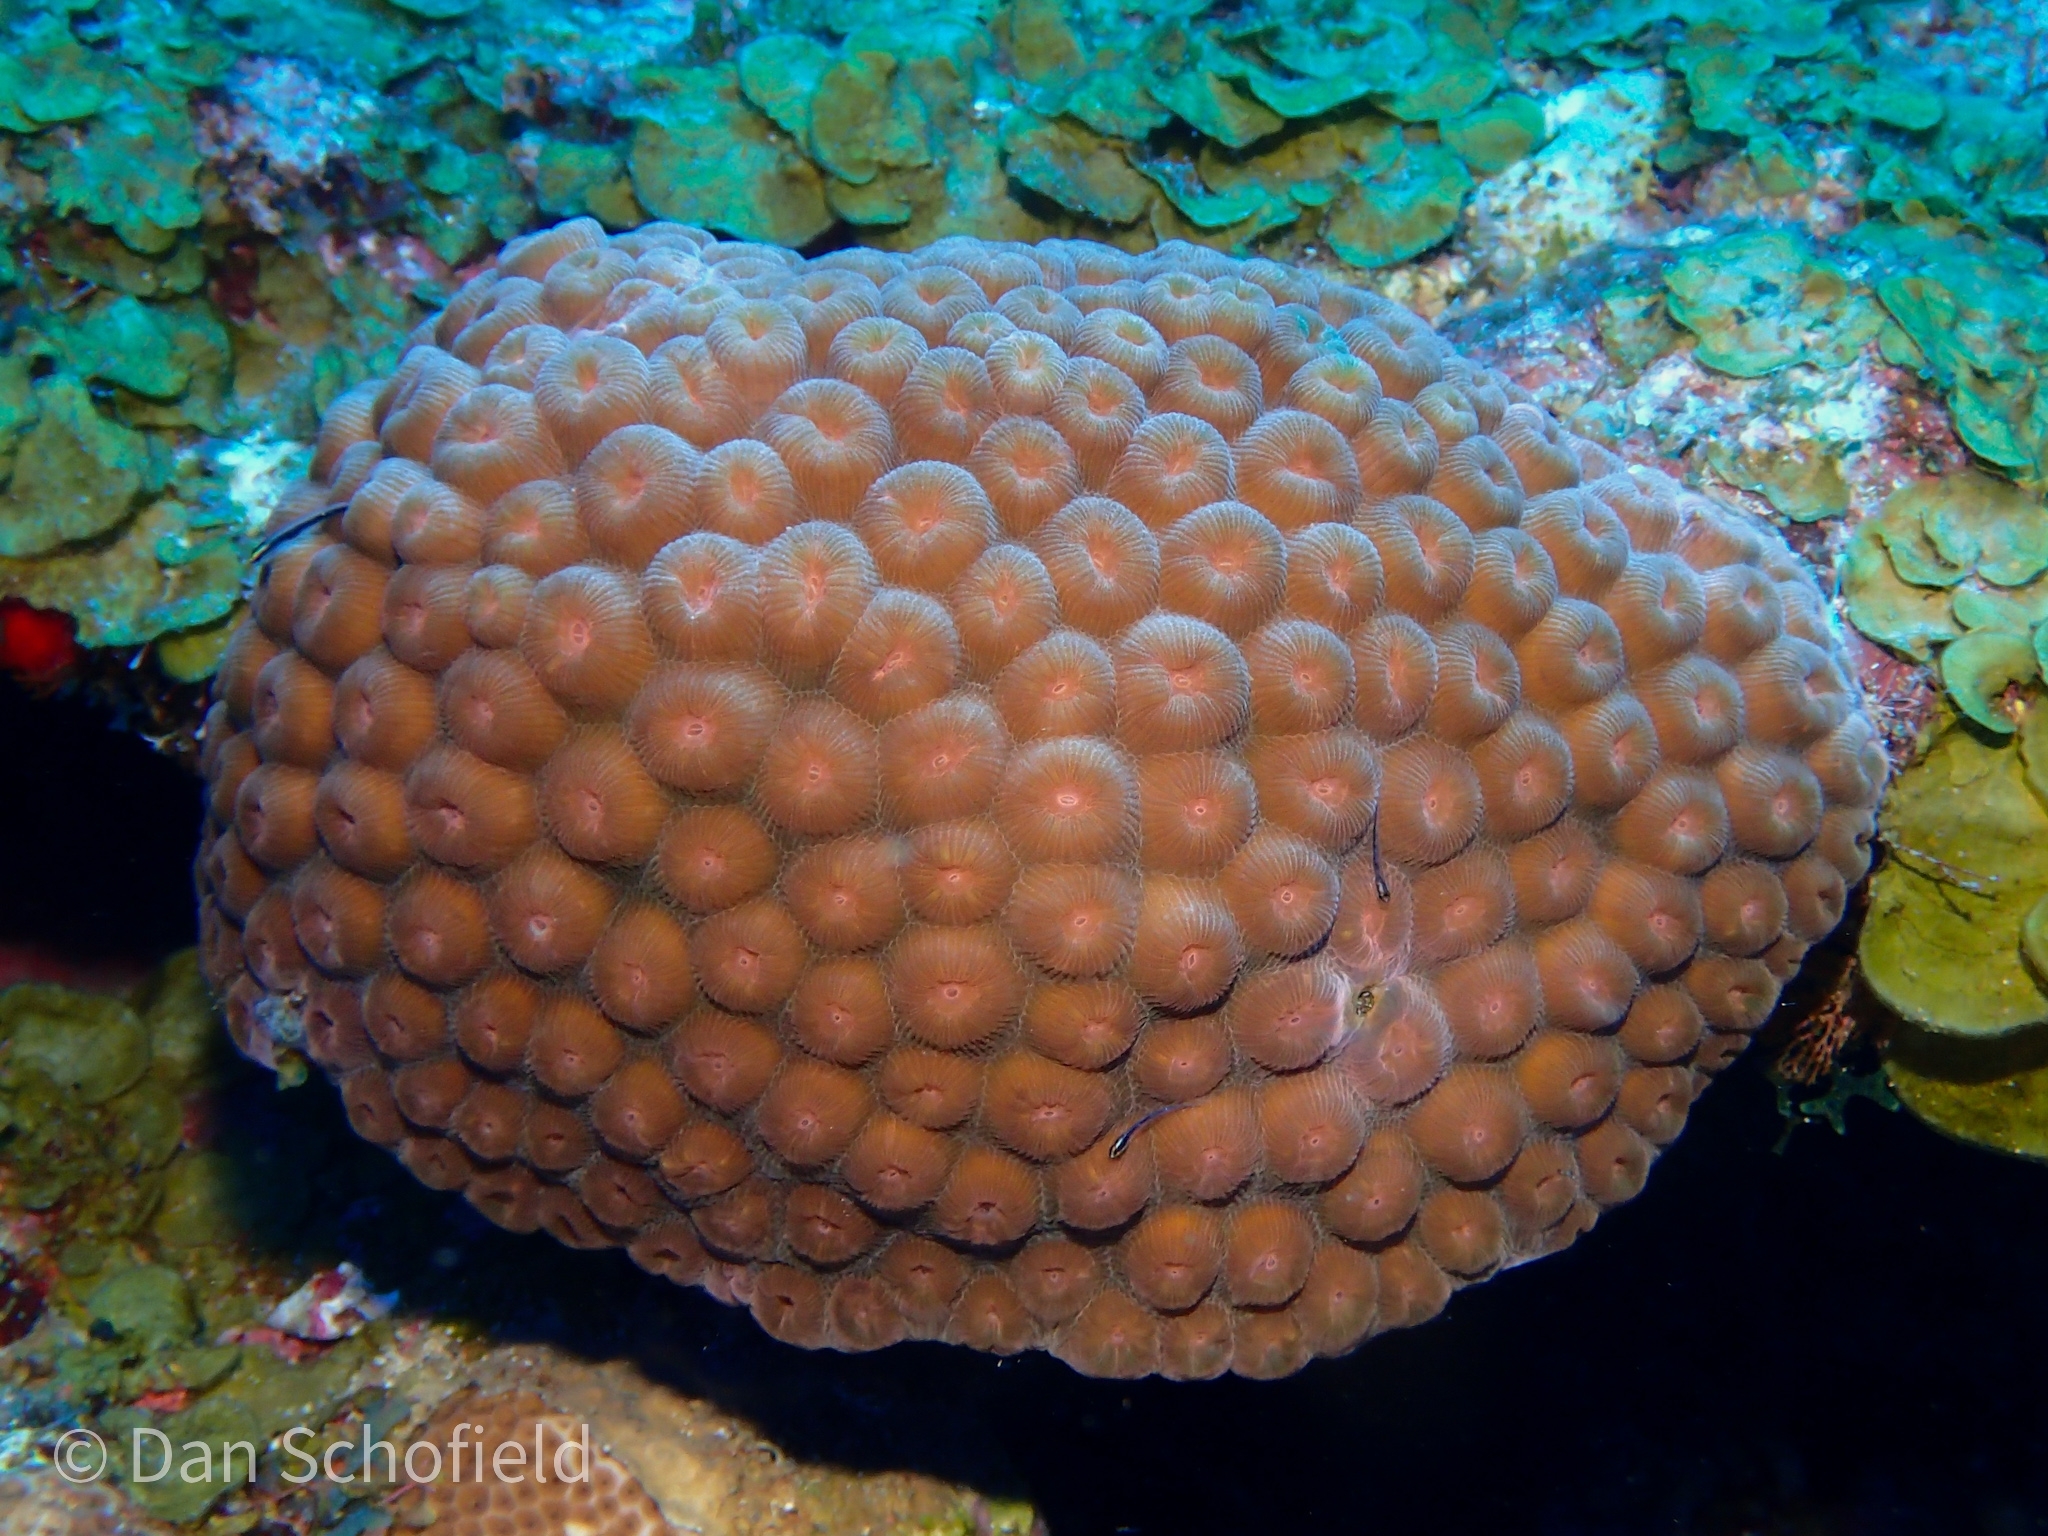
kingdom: Animalia
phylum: Cnidaria
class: Anthozoa
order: Scleractinia
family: Montastraeidae
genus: Montastraea
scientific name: Montastraea cavernosa
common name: Great star coral
